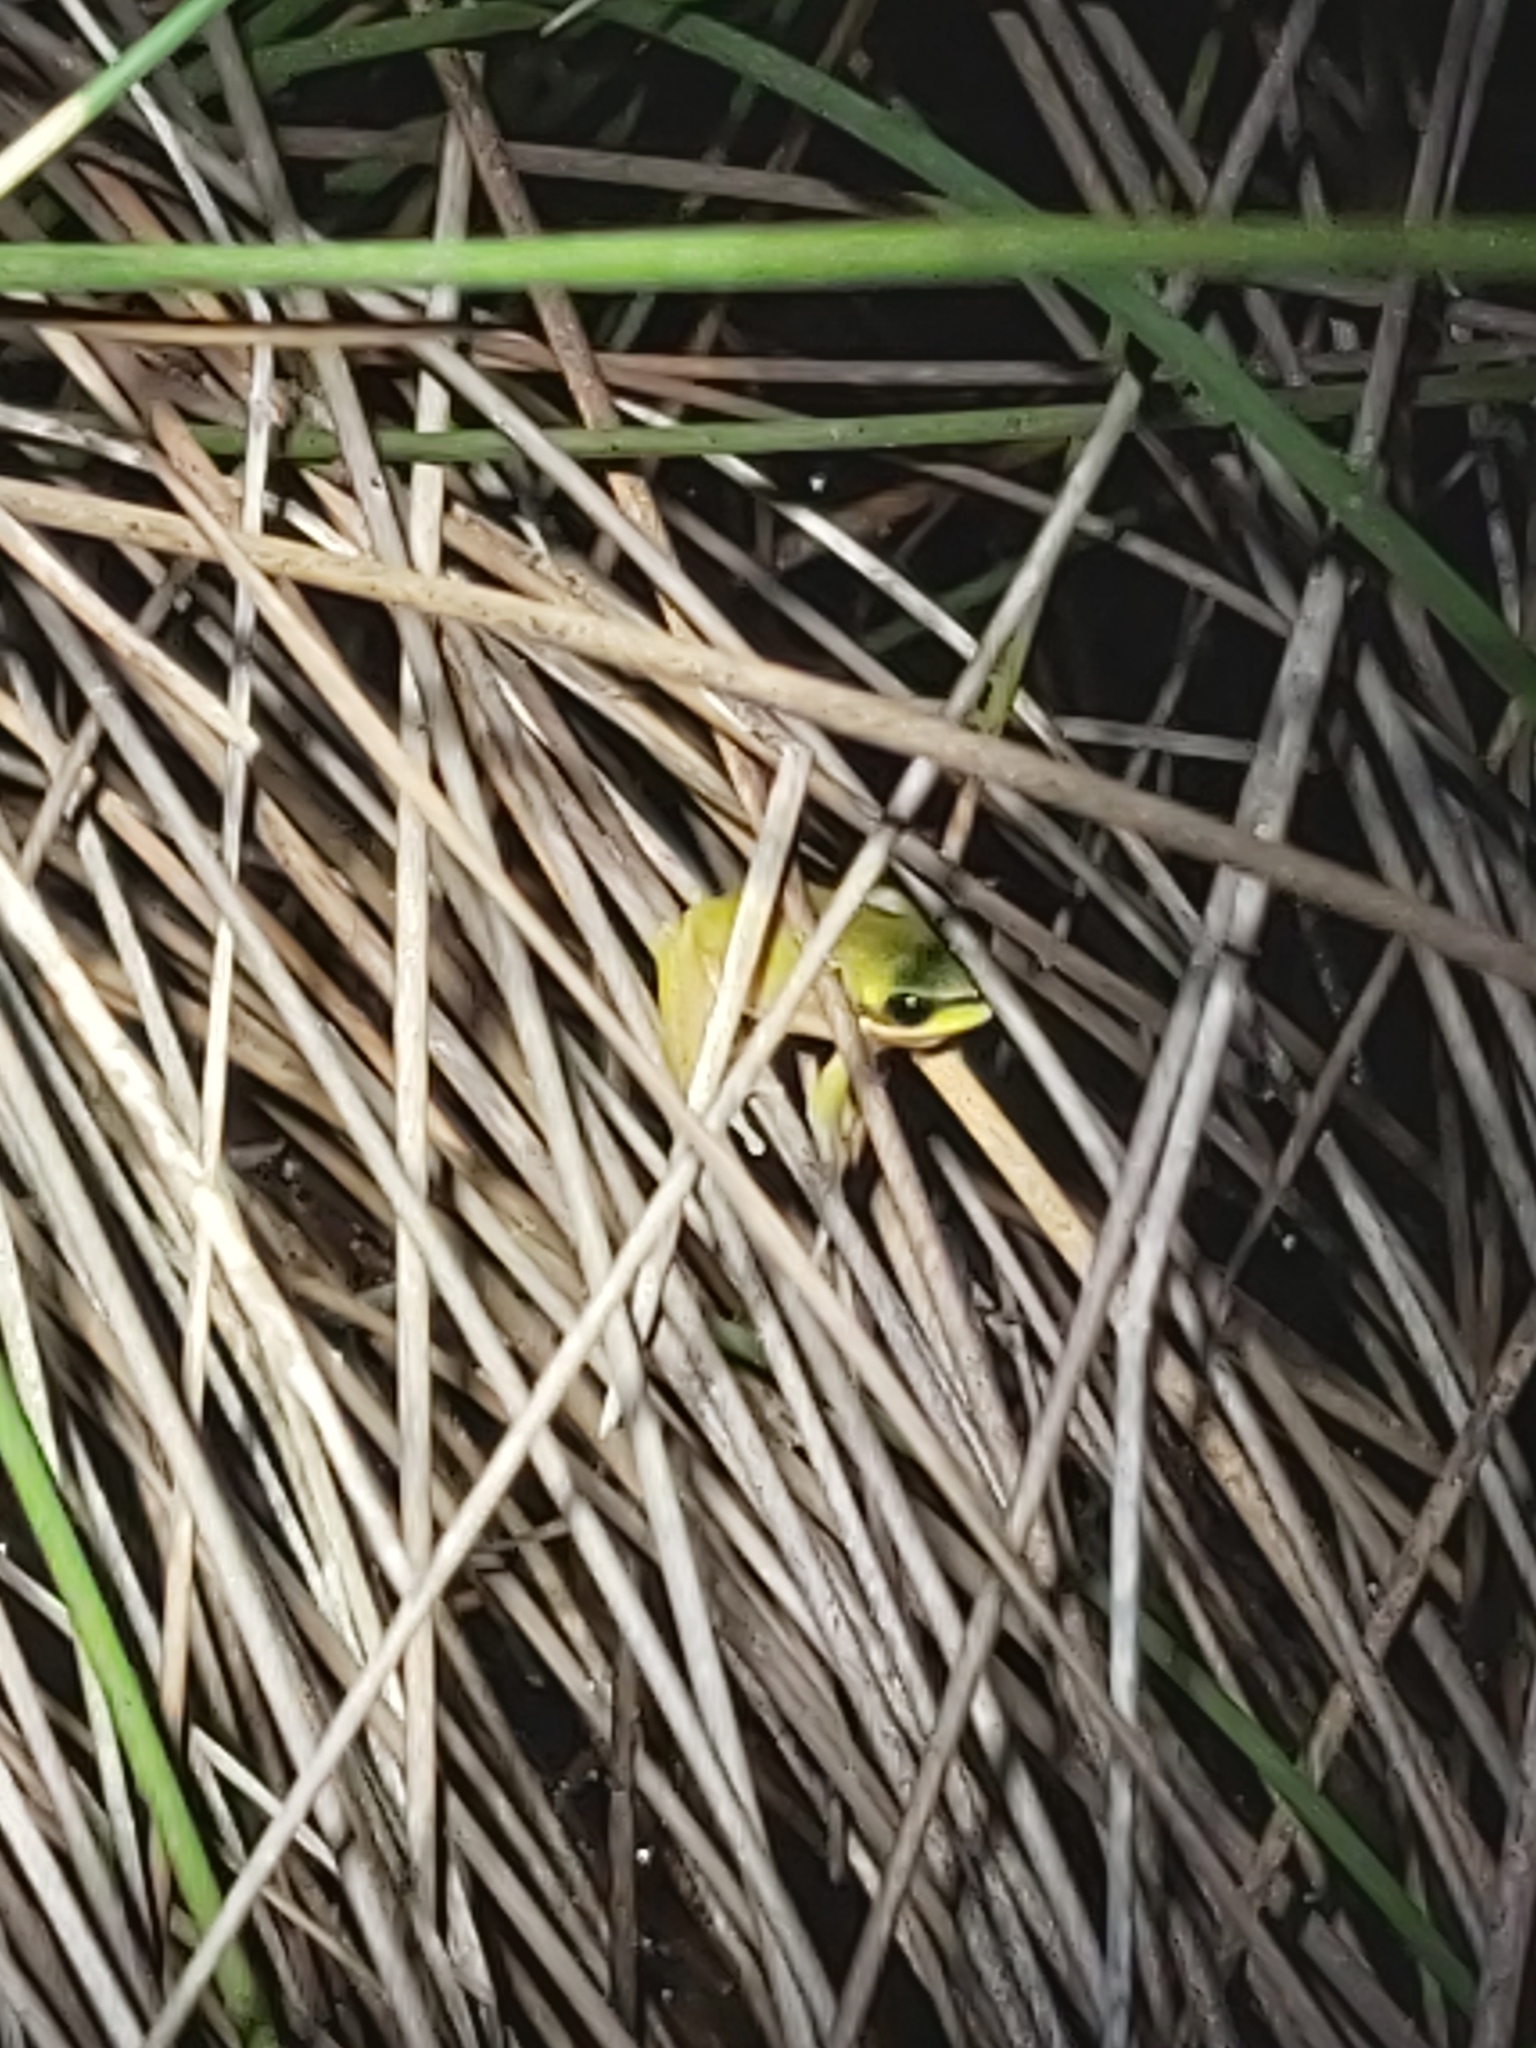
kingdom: Animalia
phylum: Chordata
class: Amphibia
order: Anura
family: Pelodryadidae
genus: Litoria
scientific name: Litoria fallax
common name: Eastern dwarf treefrog
